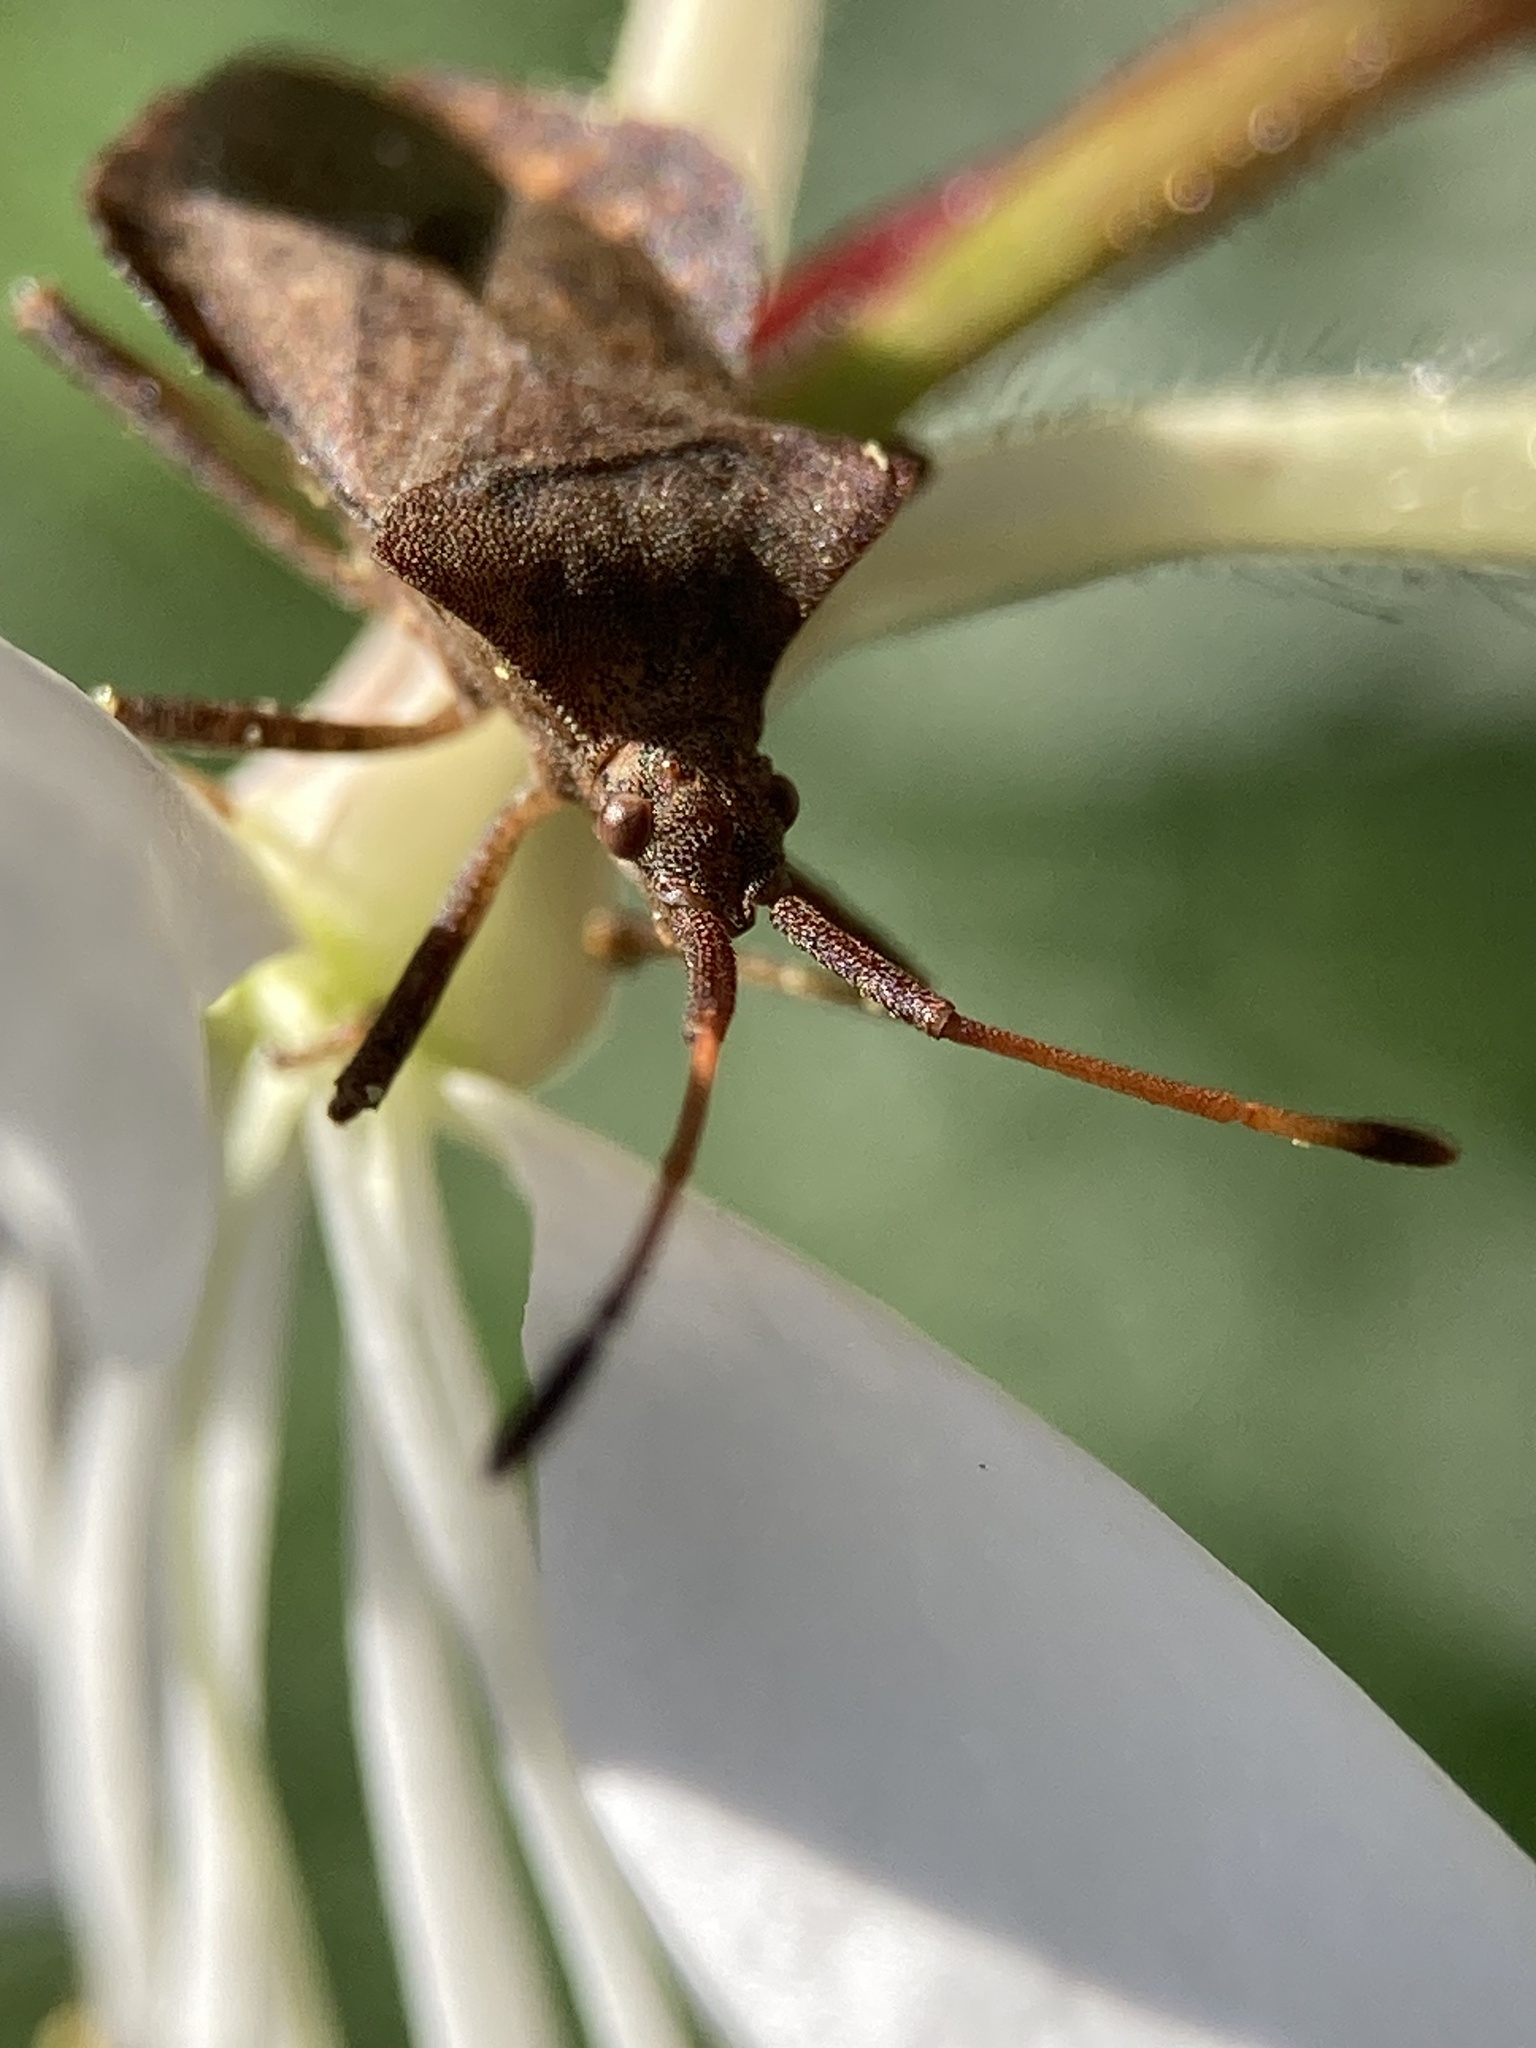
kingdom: Animalia
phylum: Arthropoda
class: Insecta
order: Hemiptera
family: Coreidae
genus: Coreus
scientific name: Coreus marginatus
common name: Dock bug
